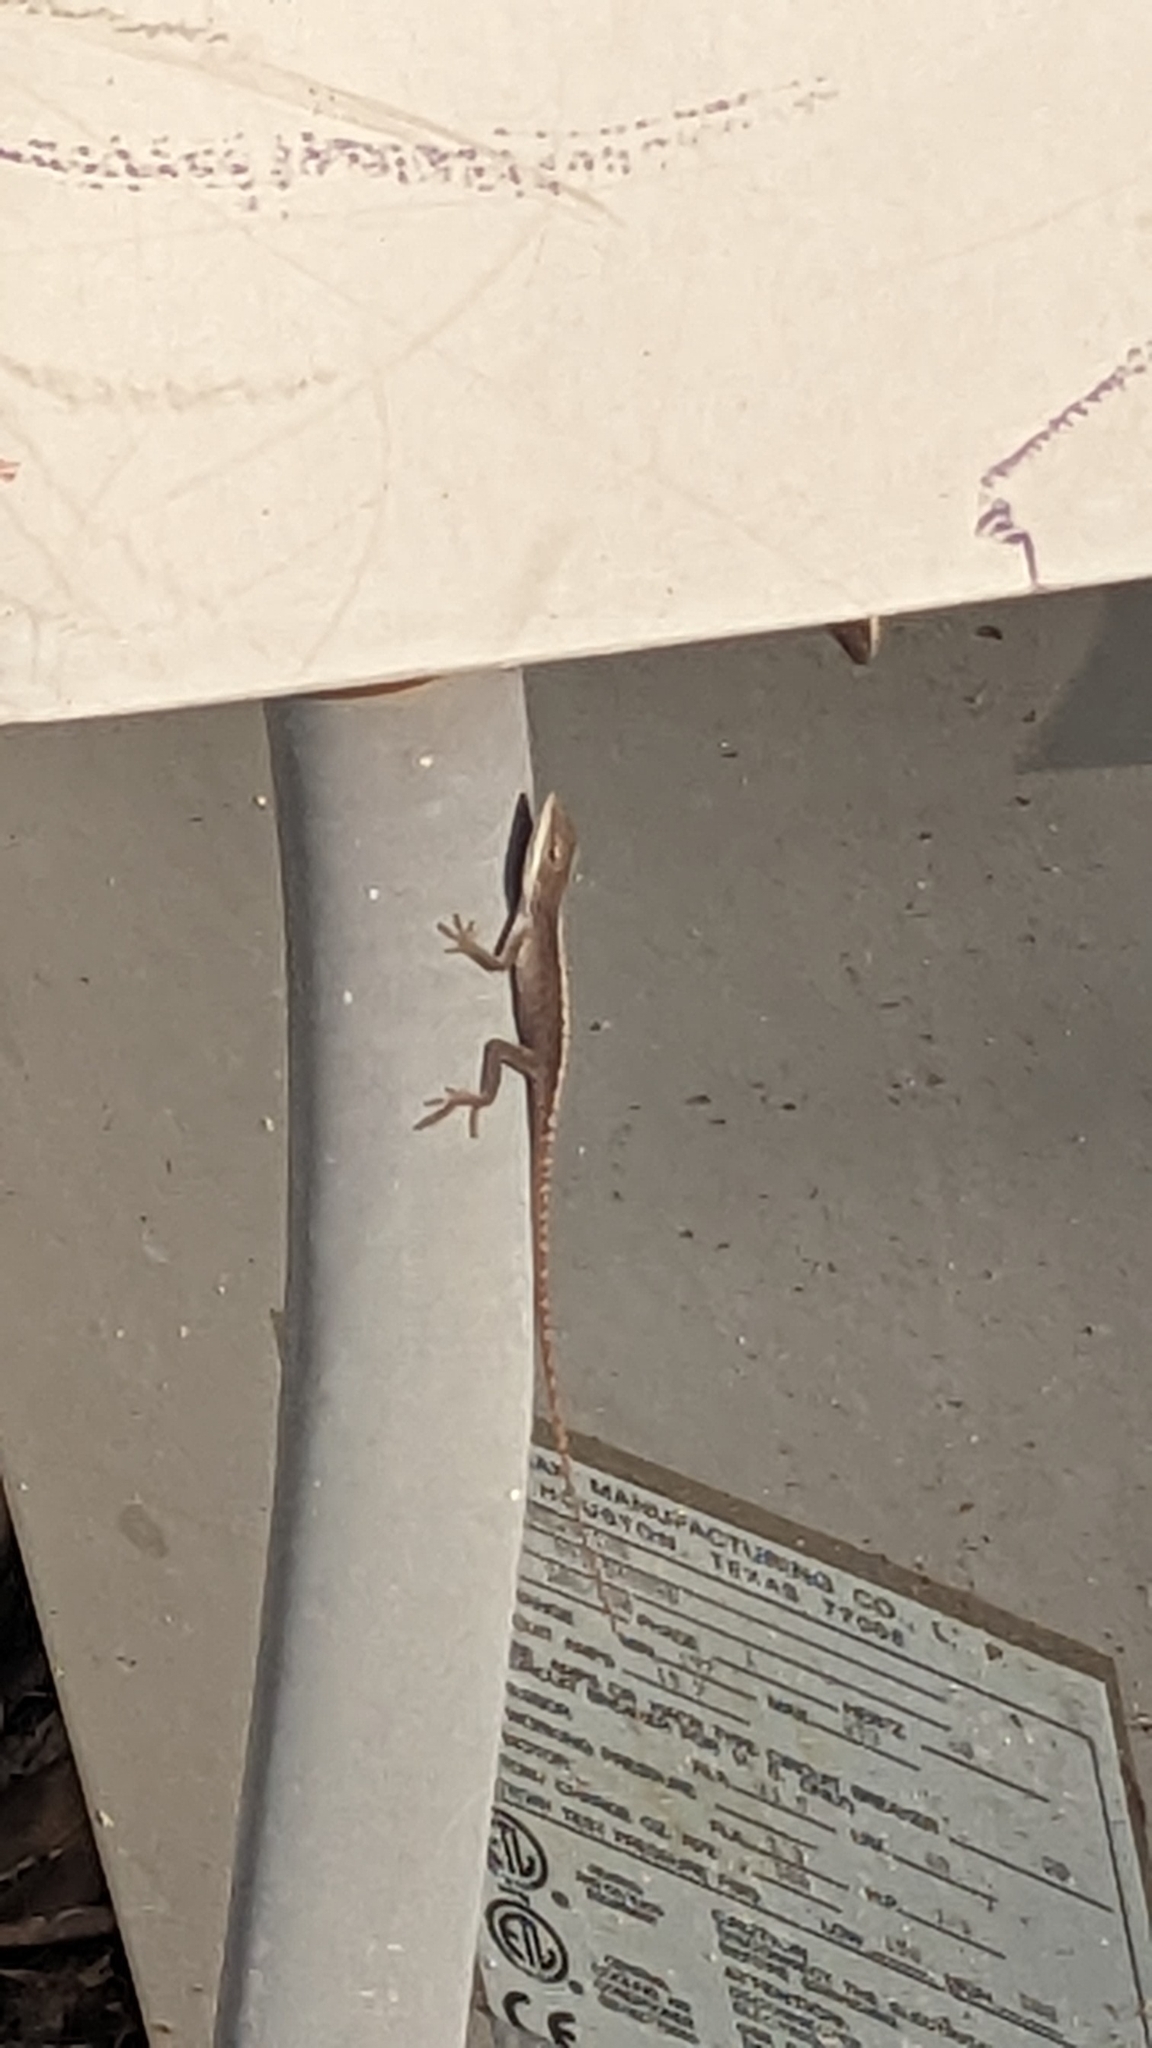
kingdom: Animalia
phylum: Chordata
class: Squamata
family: Dactyloidae
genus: Anolis
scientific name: Anolis carolinensis
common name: Green anole
